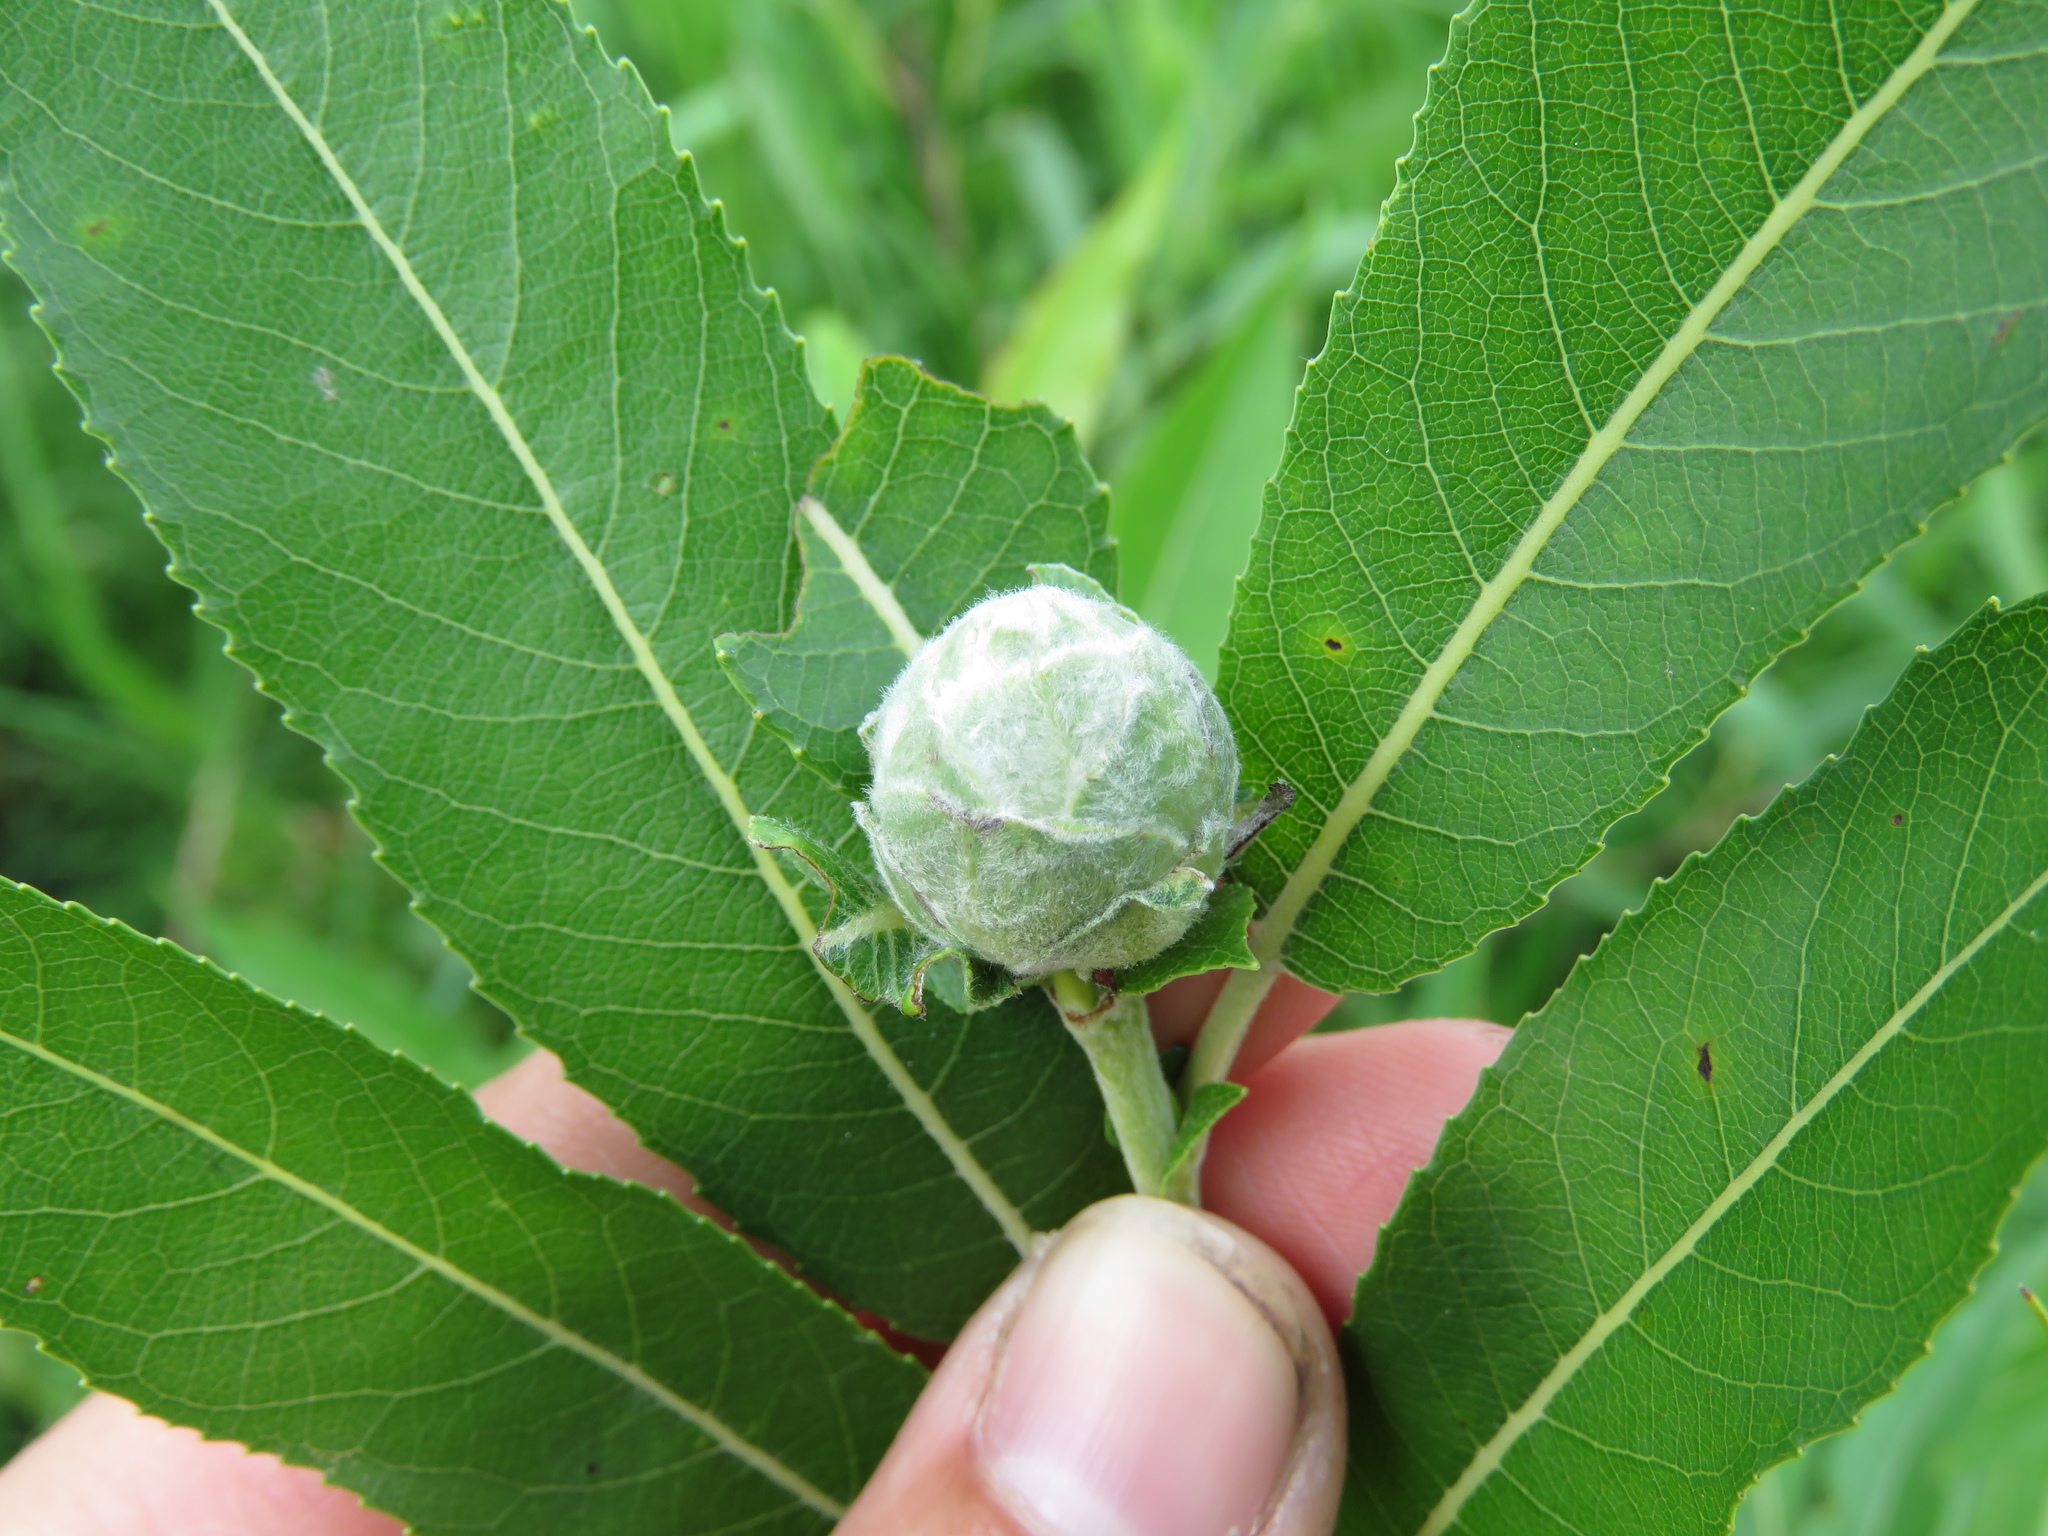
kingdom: Animalia
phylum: Arthropoda
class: Insecta
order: Diptera
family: Cecidomyiidae
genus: Rabdophaga
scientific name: Rabdophaga strobiloides
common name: Willow pinecone gall midge
